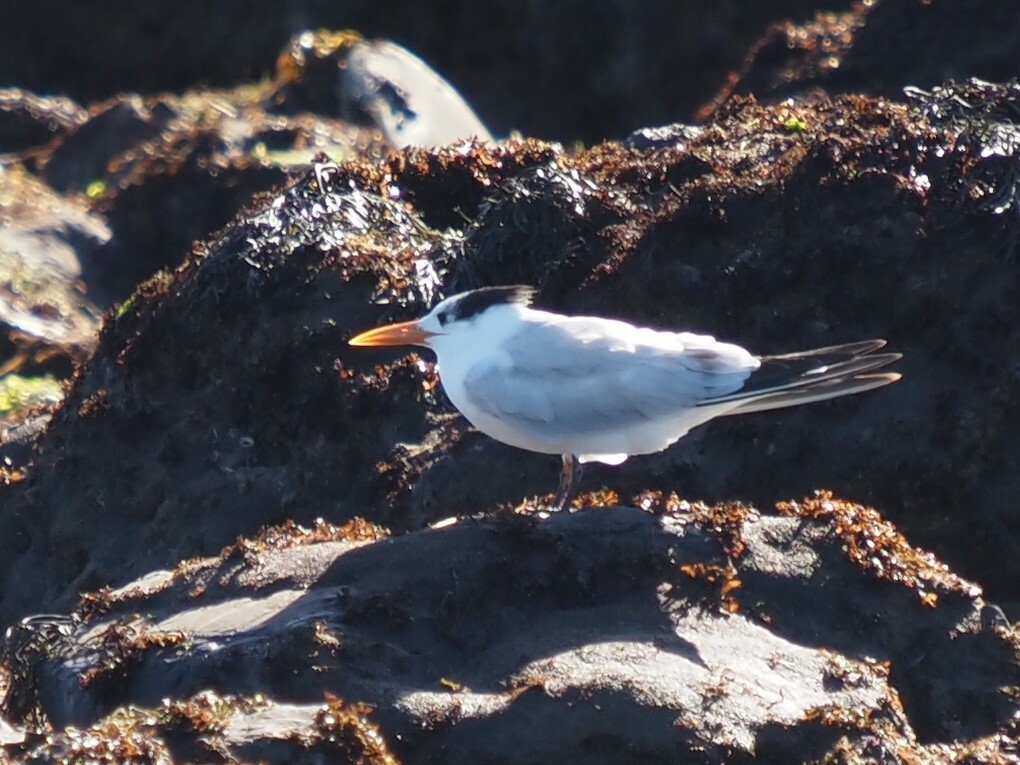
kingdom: Animalia
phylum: Chordata
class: Aves
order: Charadriiformes
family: Laridae
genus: Thalasseus
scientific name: Thalasseus maximus
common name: Royal tern
